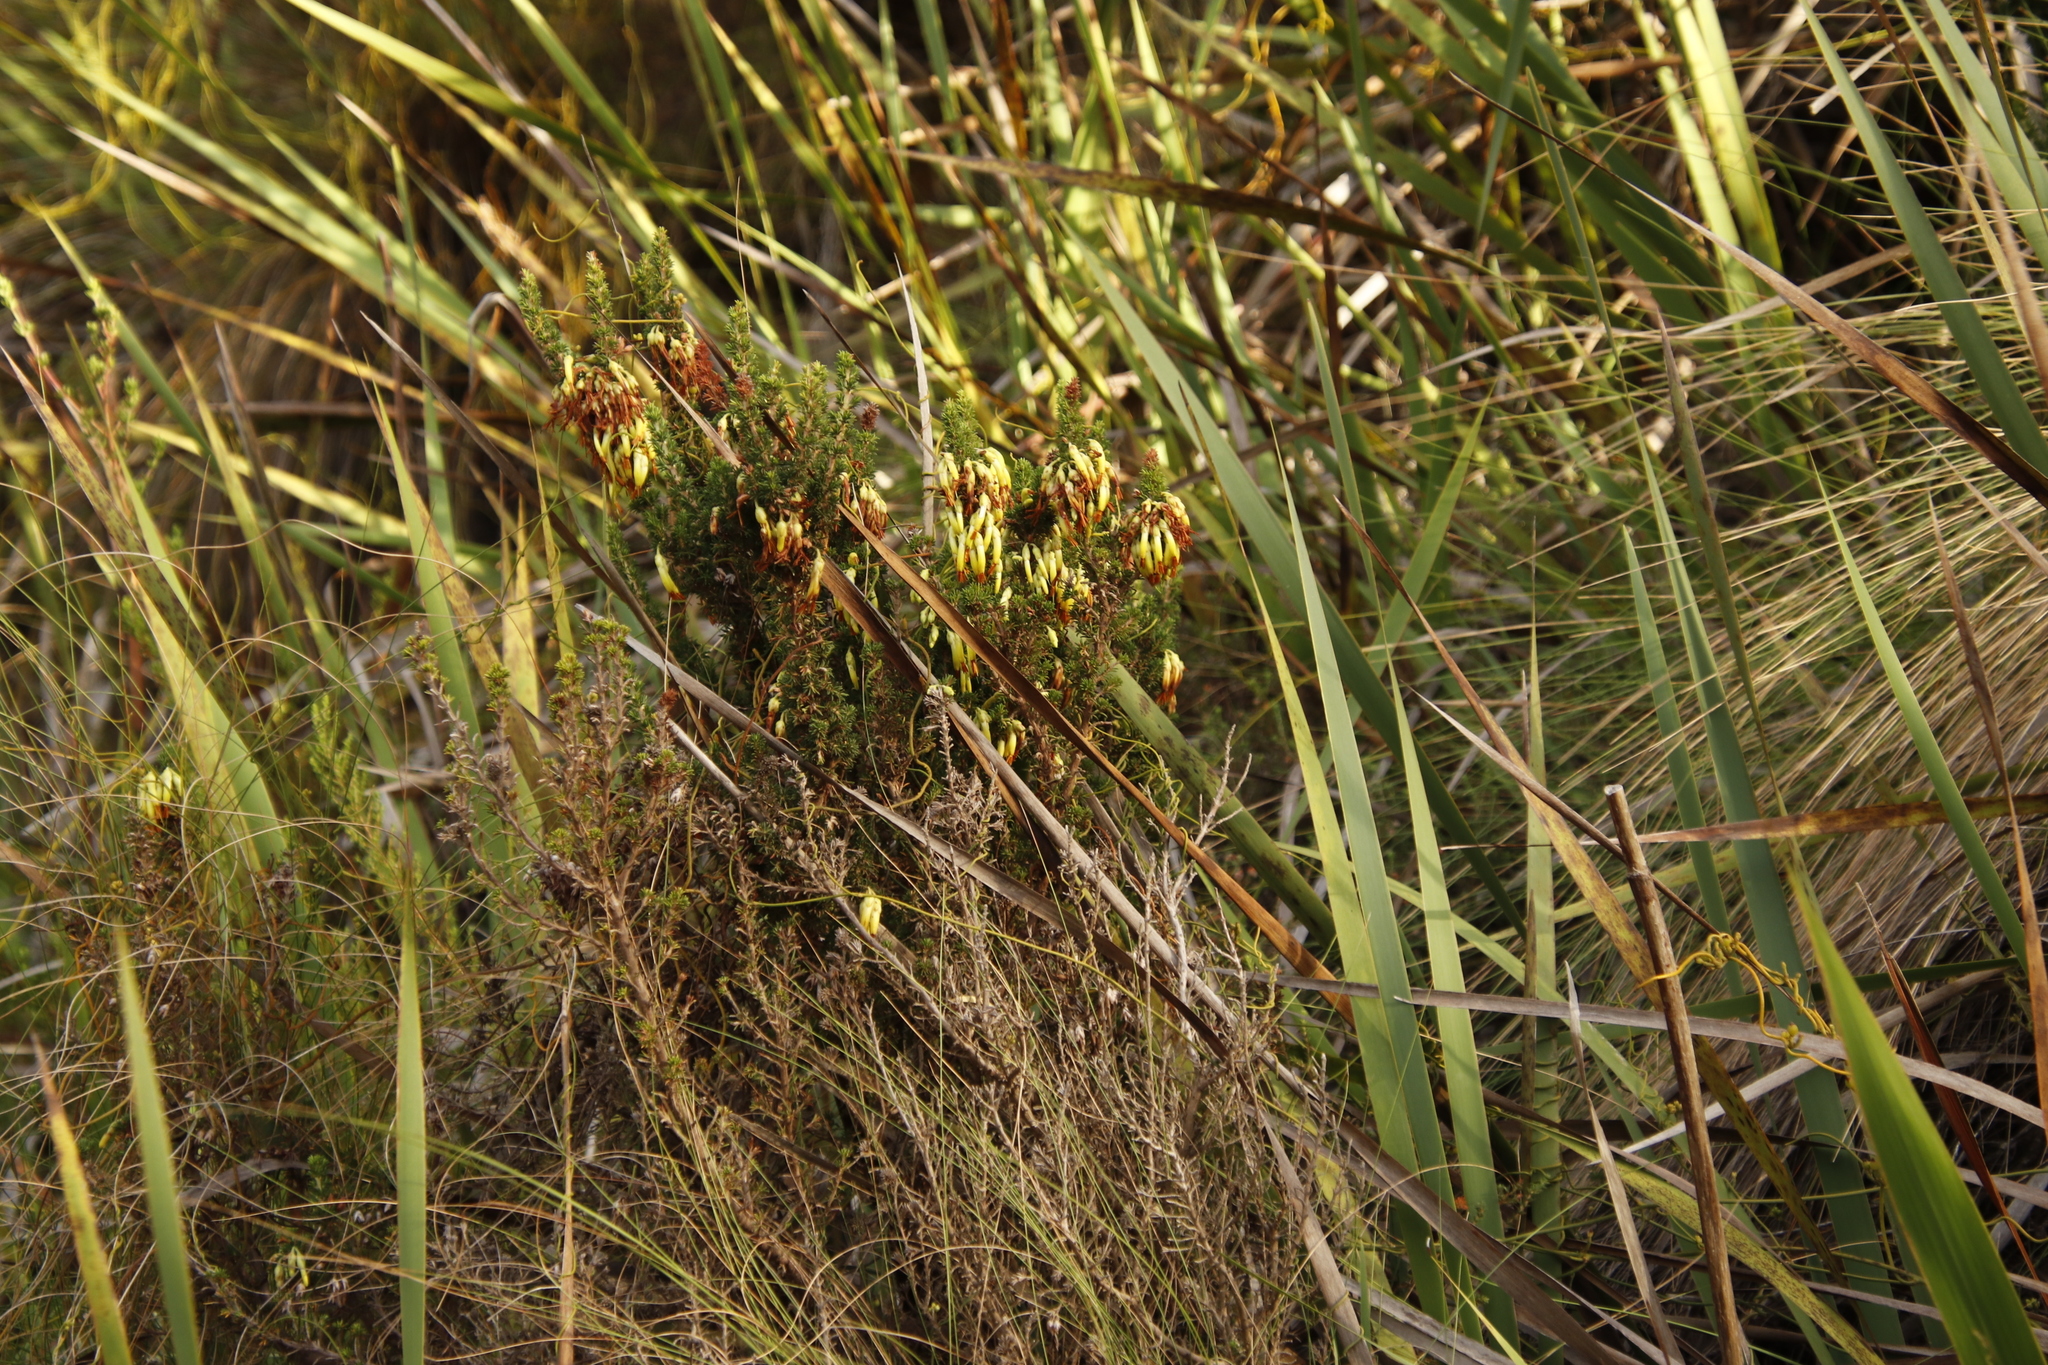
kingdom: Plantae
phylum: Tracheophyta
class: Magnoliopsida
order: Ericales
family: Ericaceae
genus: Erica
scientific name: Erica coccinea
